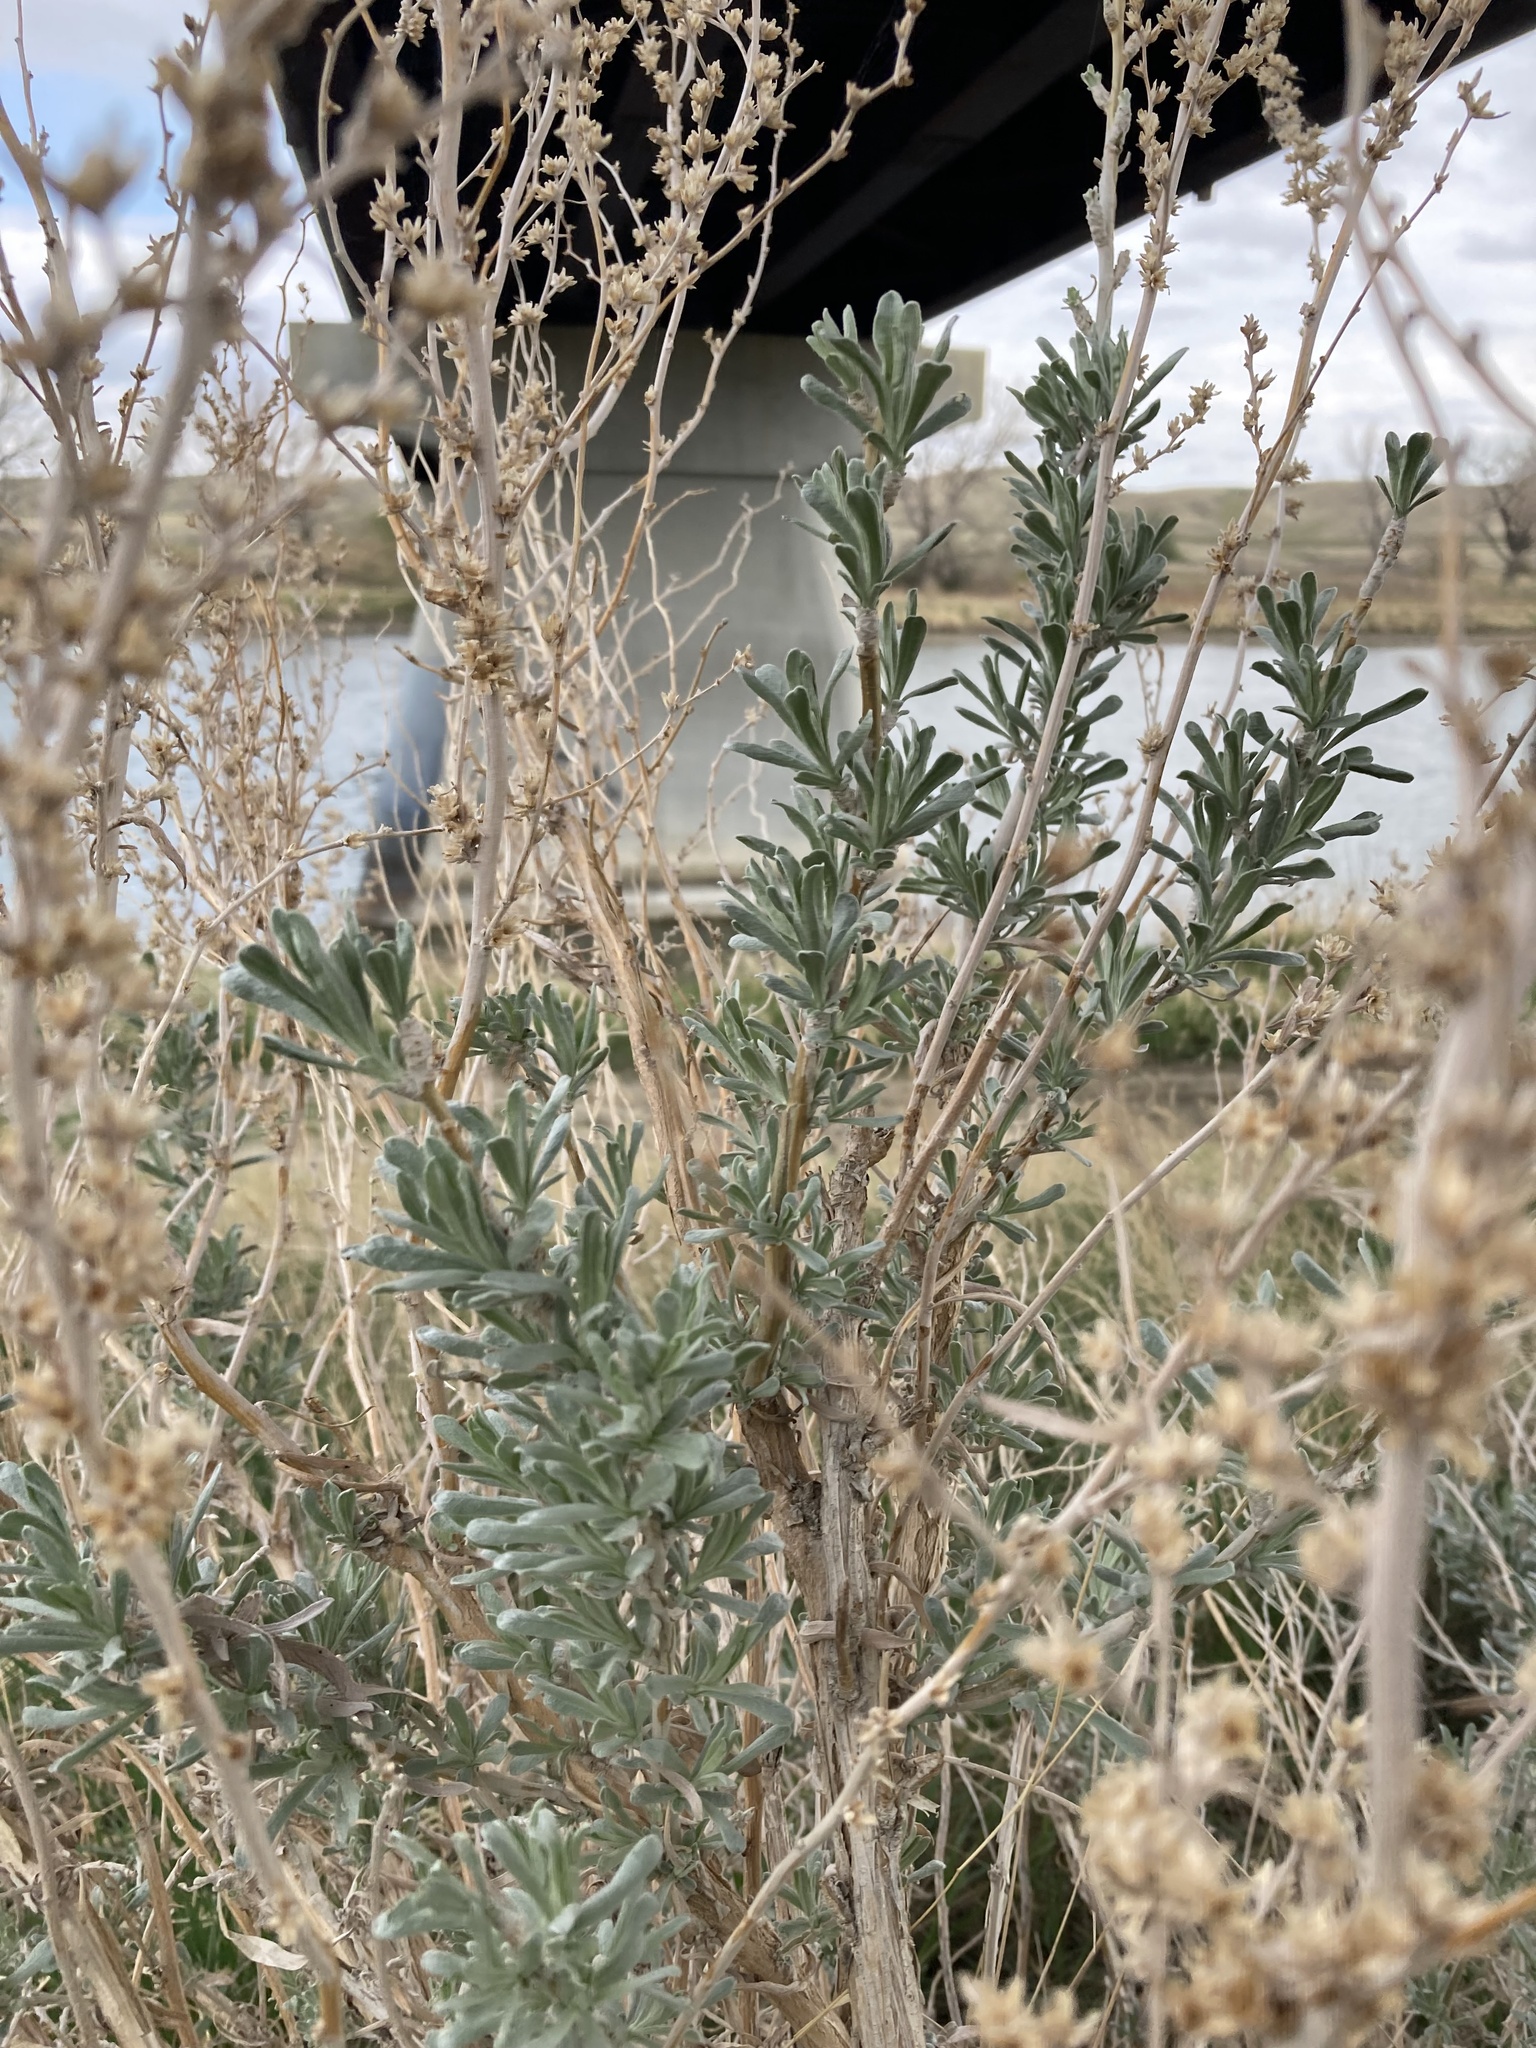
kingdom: Plantae
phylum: Tracheophyta
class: Magnoliopsida
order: Asterales
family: Asteraceae
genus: Artemisia
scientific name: Artemisia cana
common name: Silver sagebrush
